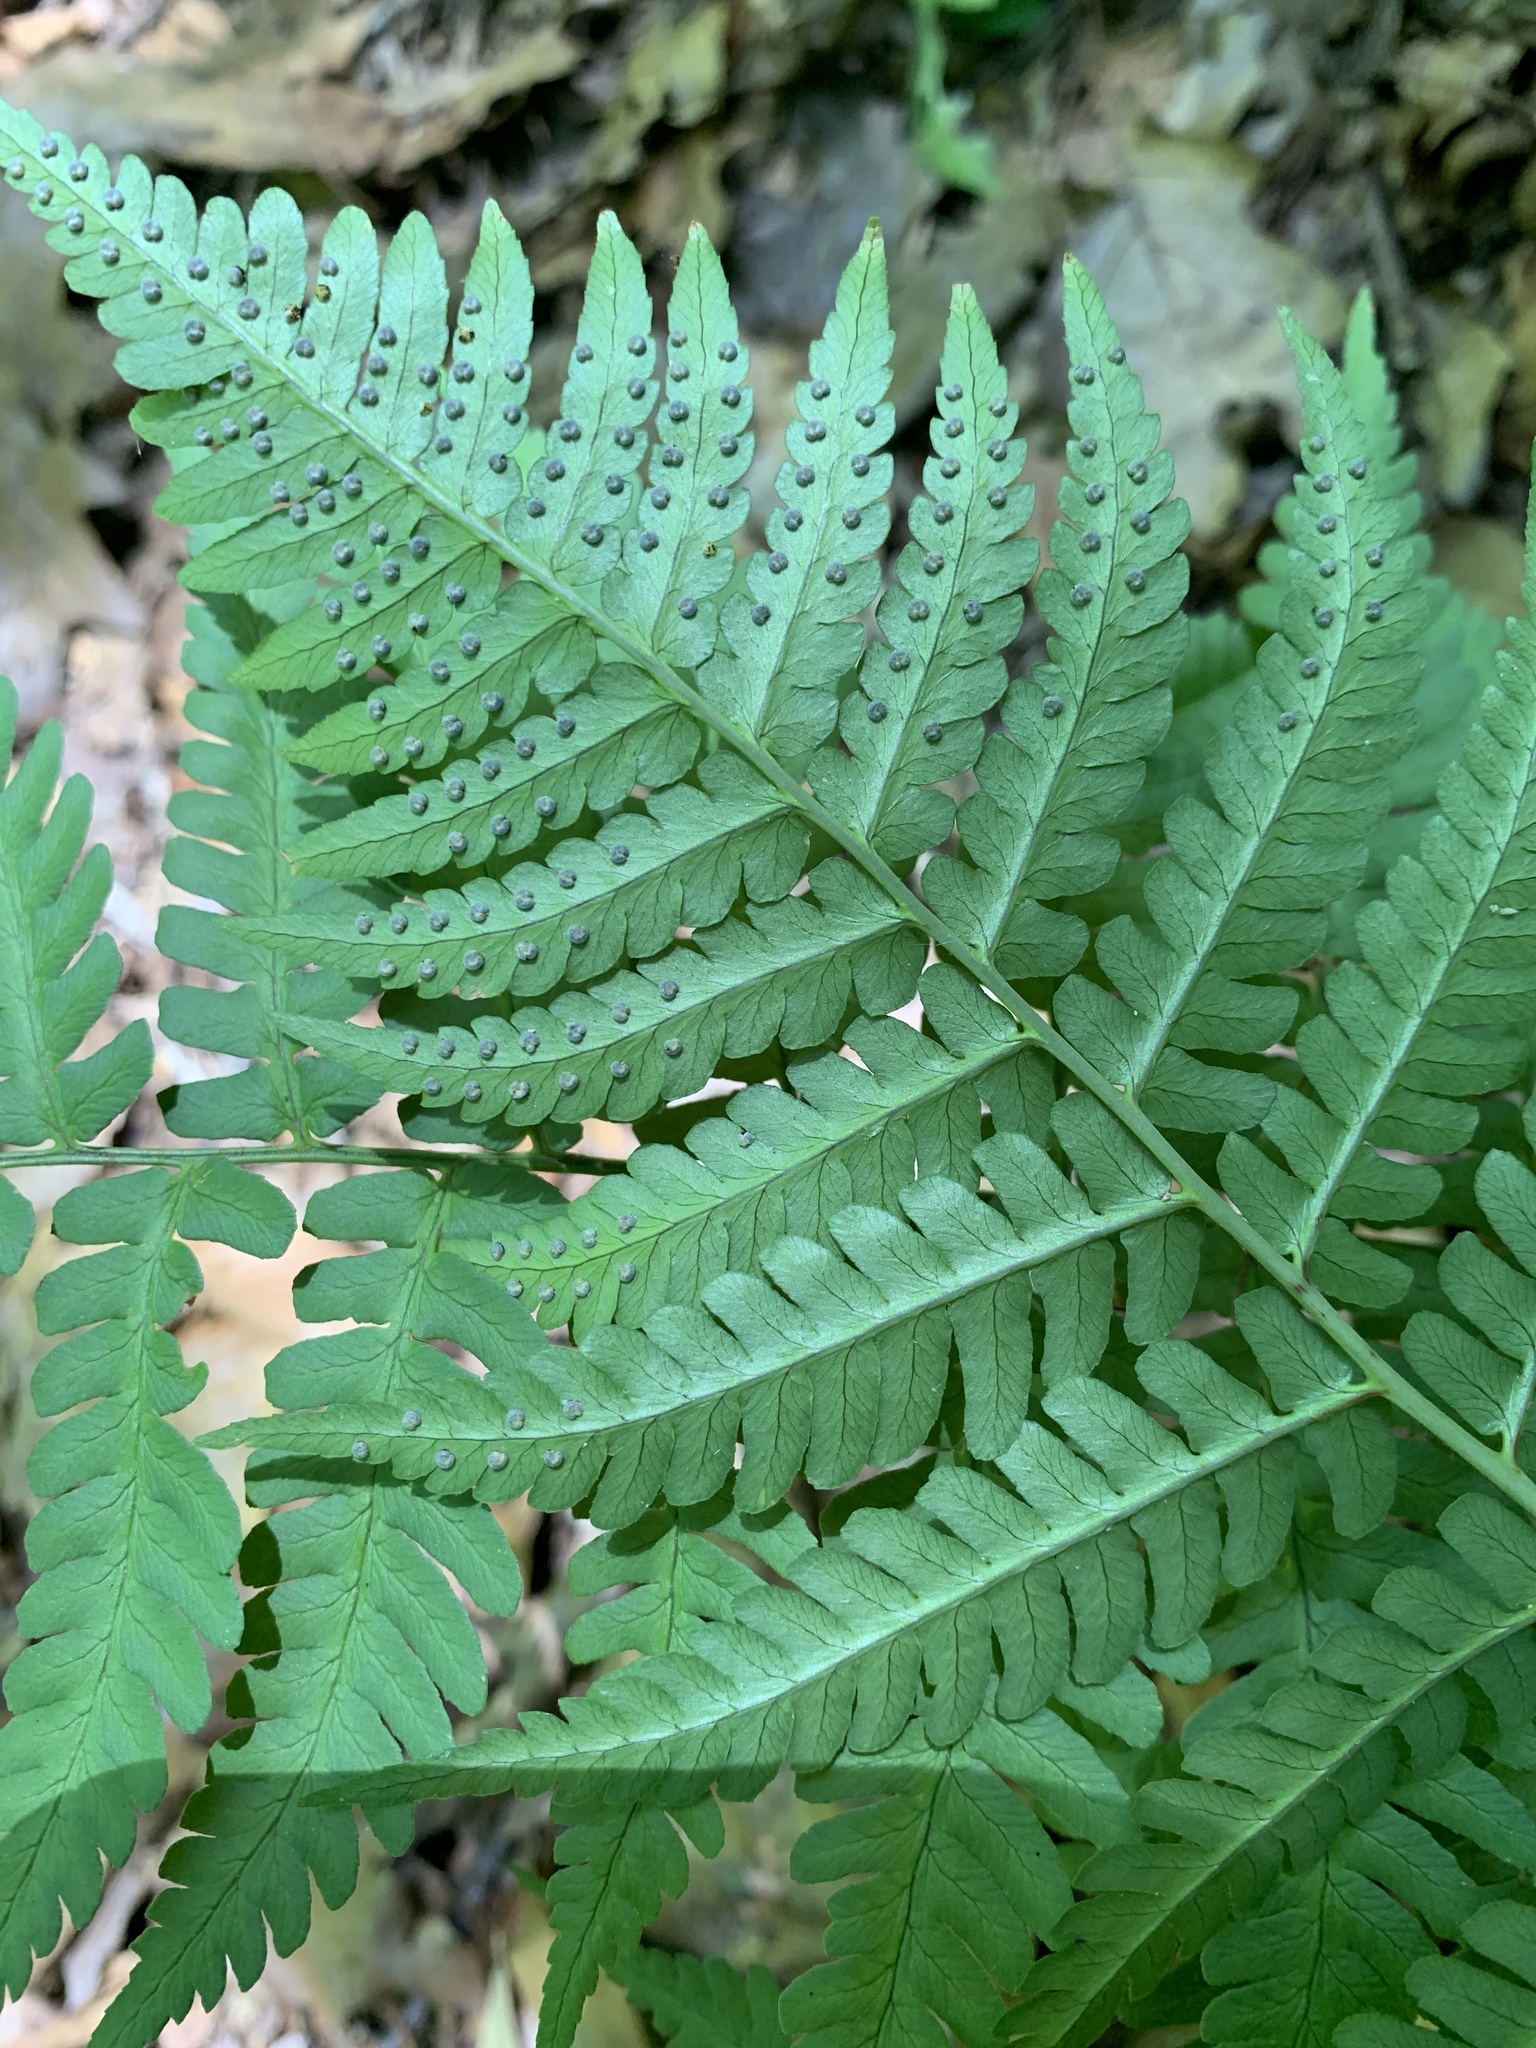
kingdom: Plantae
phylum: Tracheophyta
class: Polypodiopsida
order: Polypodiales
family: Dryopteridaceae
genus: Dryopteris
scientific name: Dryopteris marginalis
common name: Marginal wood fern
